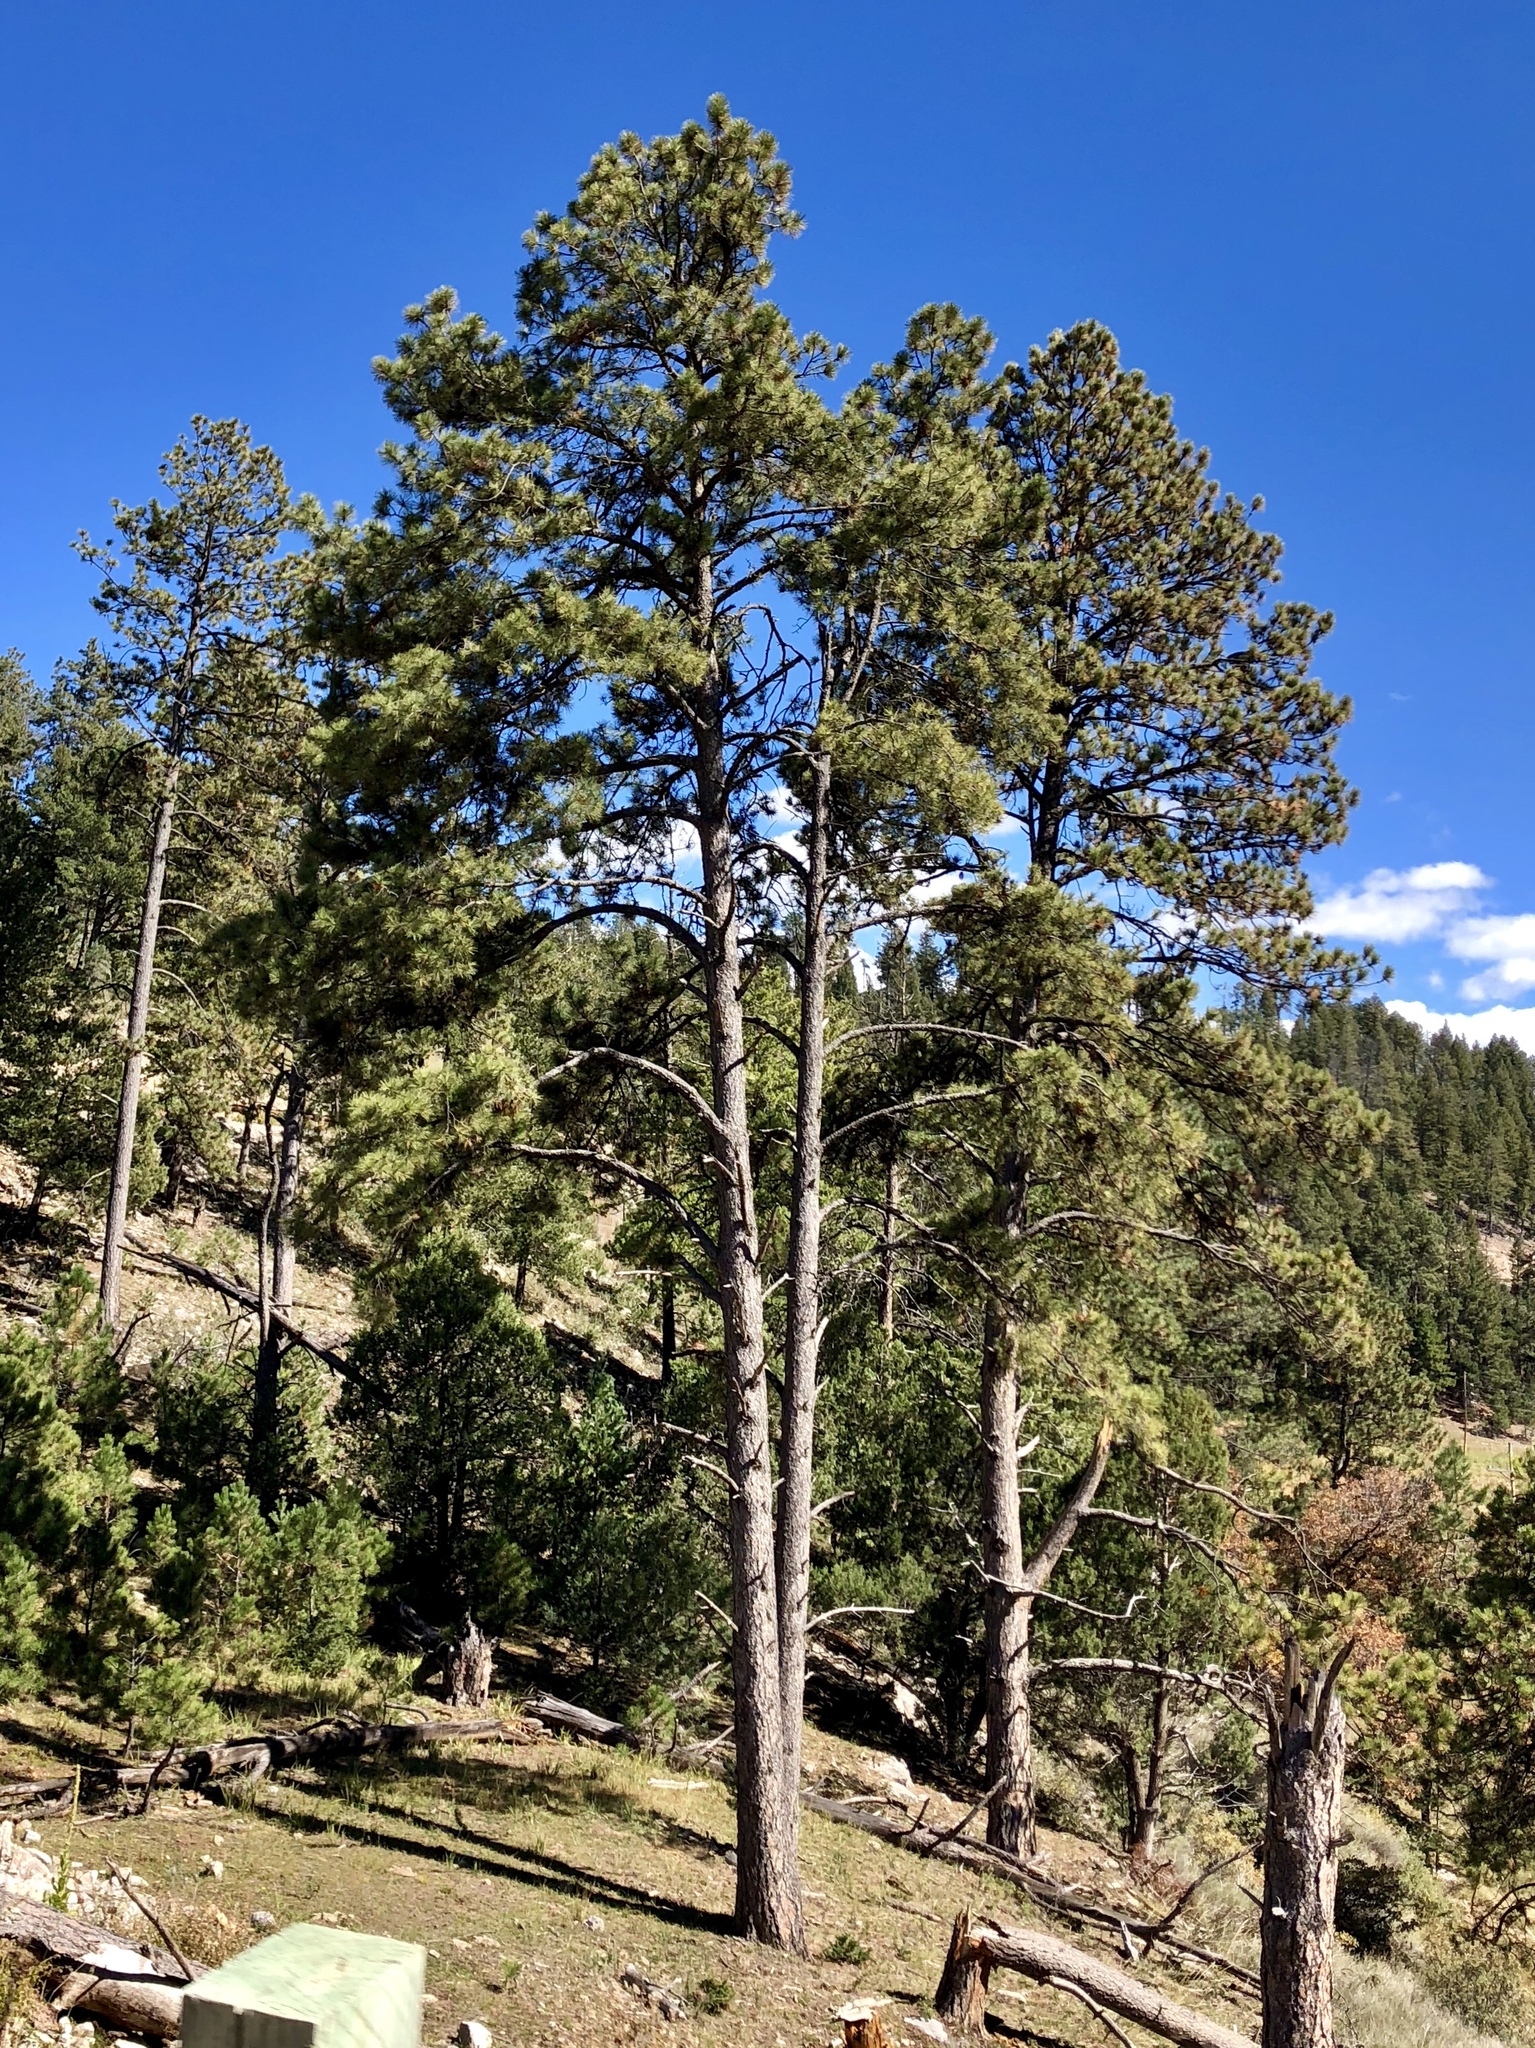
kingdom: Plantae
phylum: Tracheophyta
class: Pinopsida
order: Pinales
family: Pinaceae
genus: Pinus
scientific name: Pinus ponderosa
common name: Western yellow-pine
